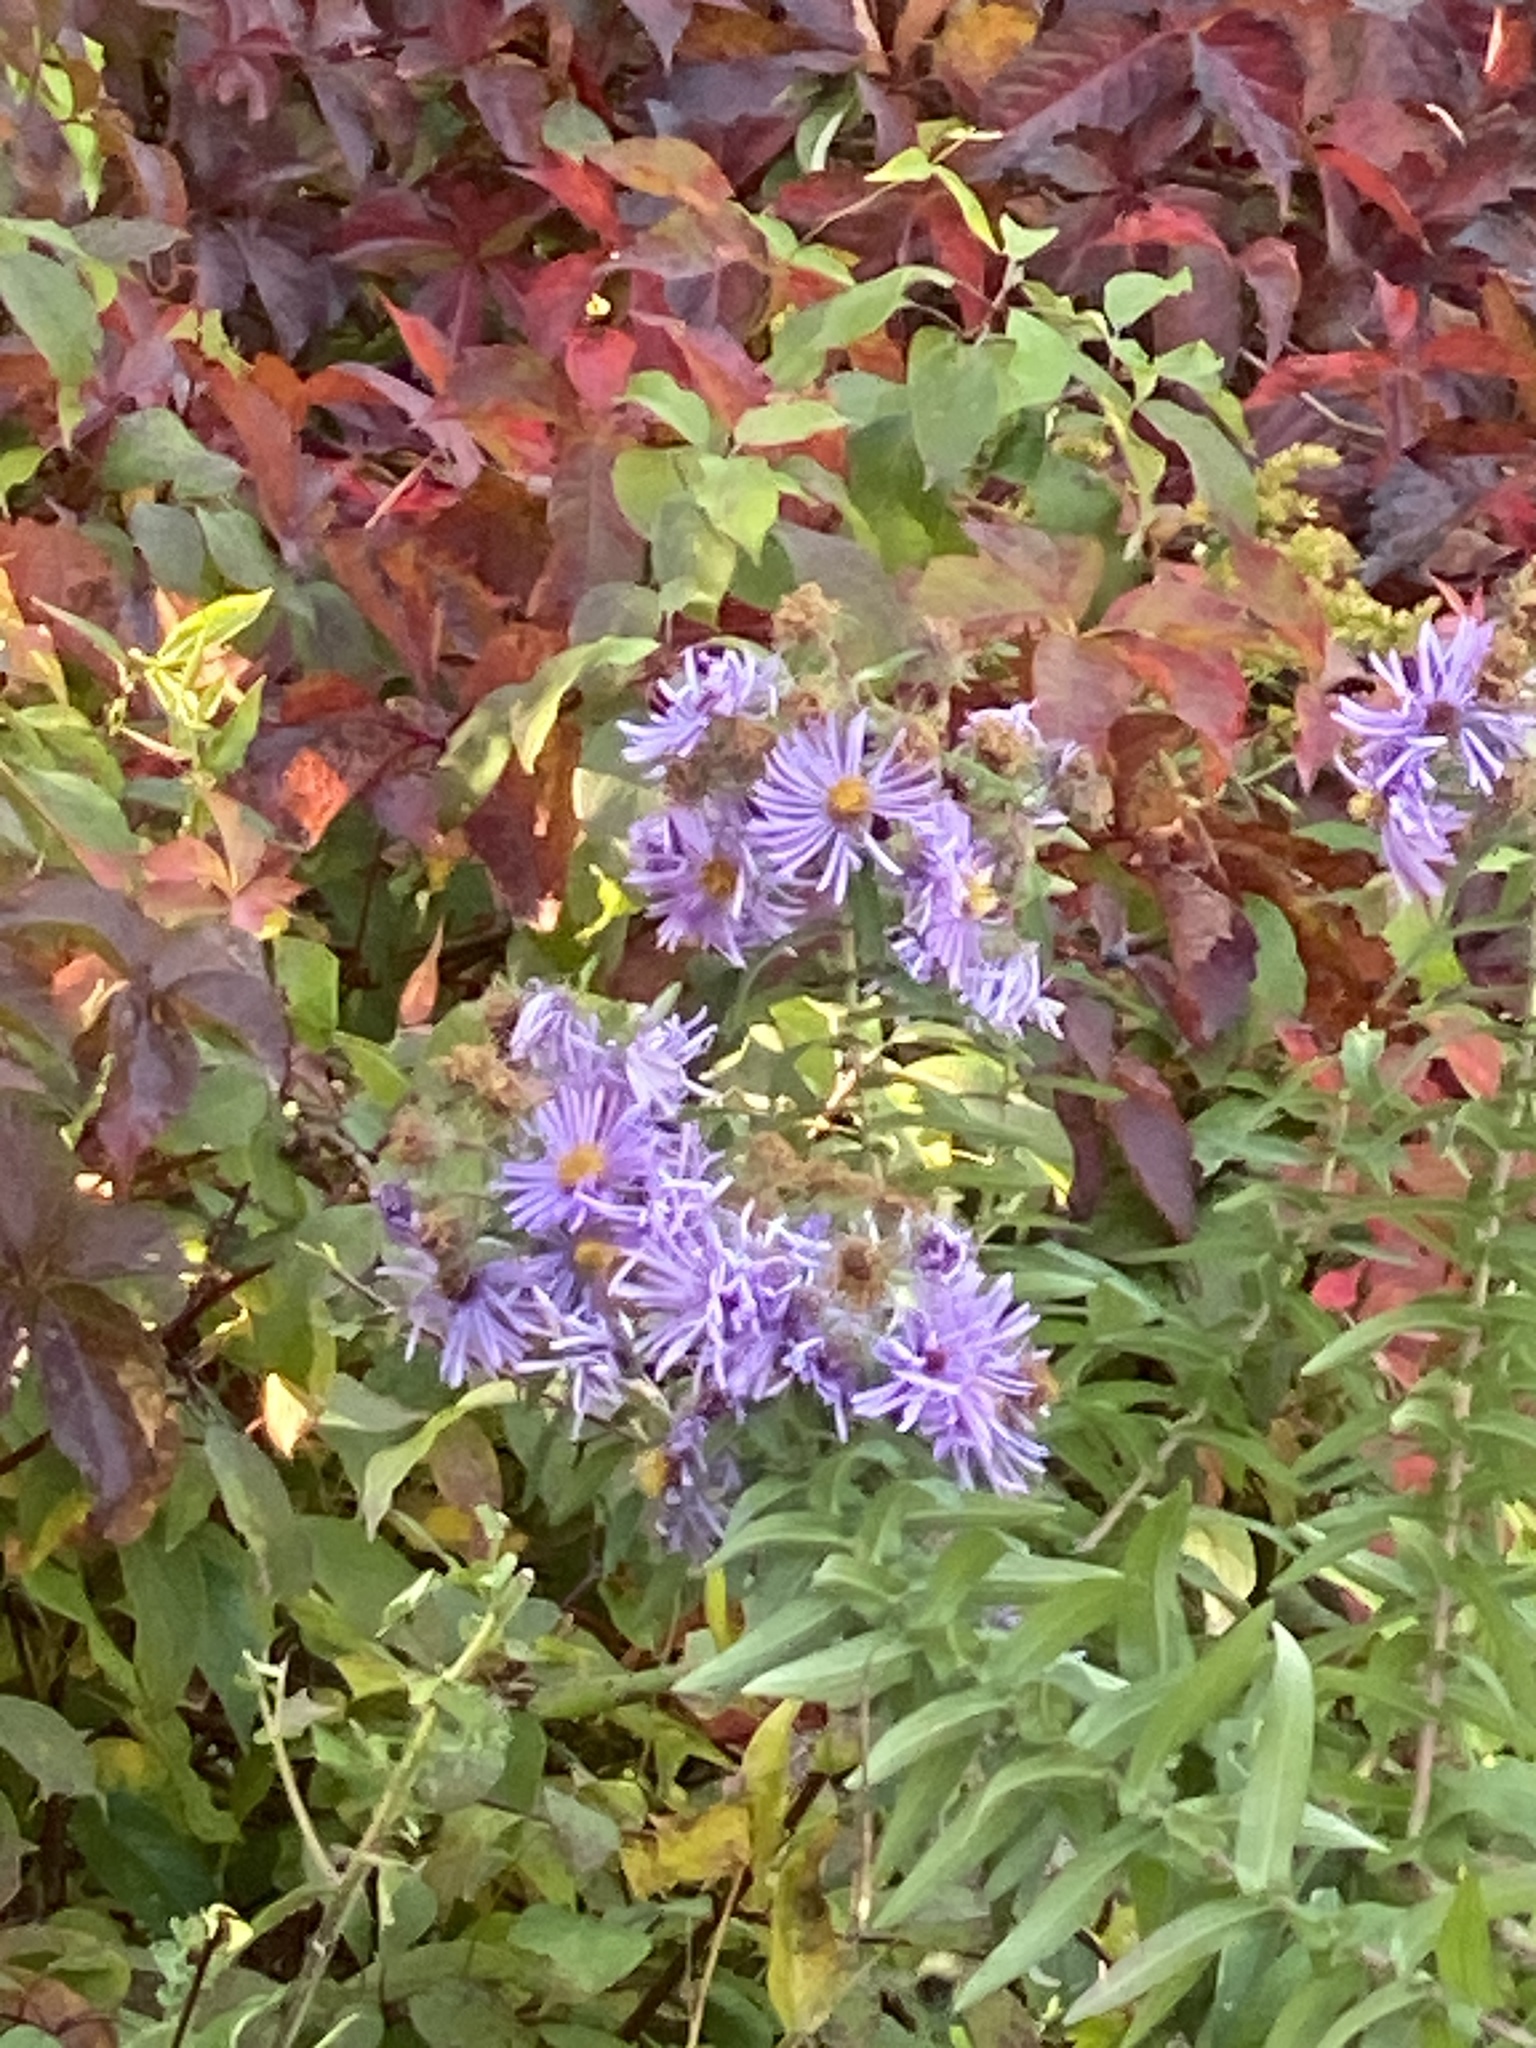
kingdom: Plantae
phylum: Tracheophyta
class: Magnoliopsida
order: Asterales
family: Asteraceae
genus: Symphyotrichum
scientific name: Symphyotrichum novae-angliae
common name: Michaelmas daisy
